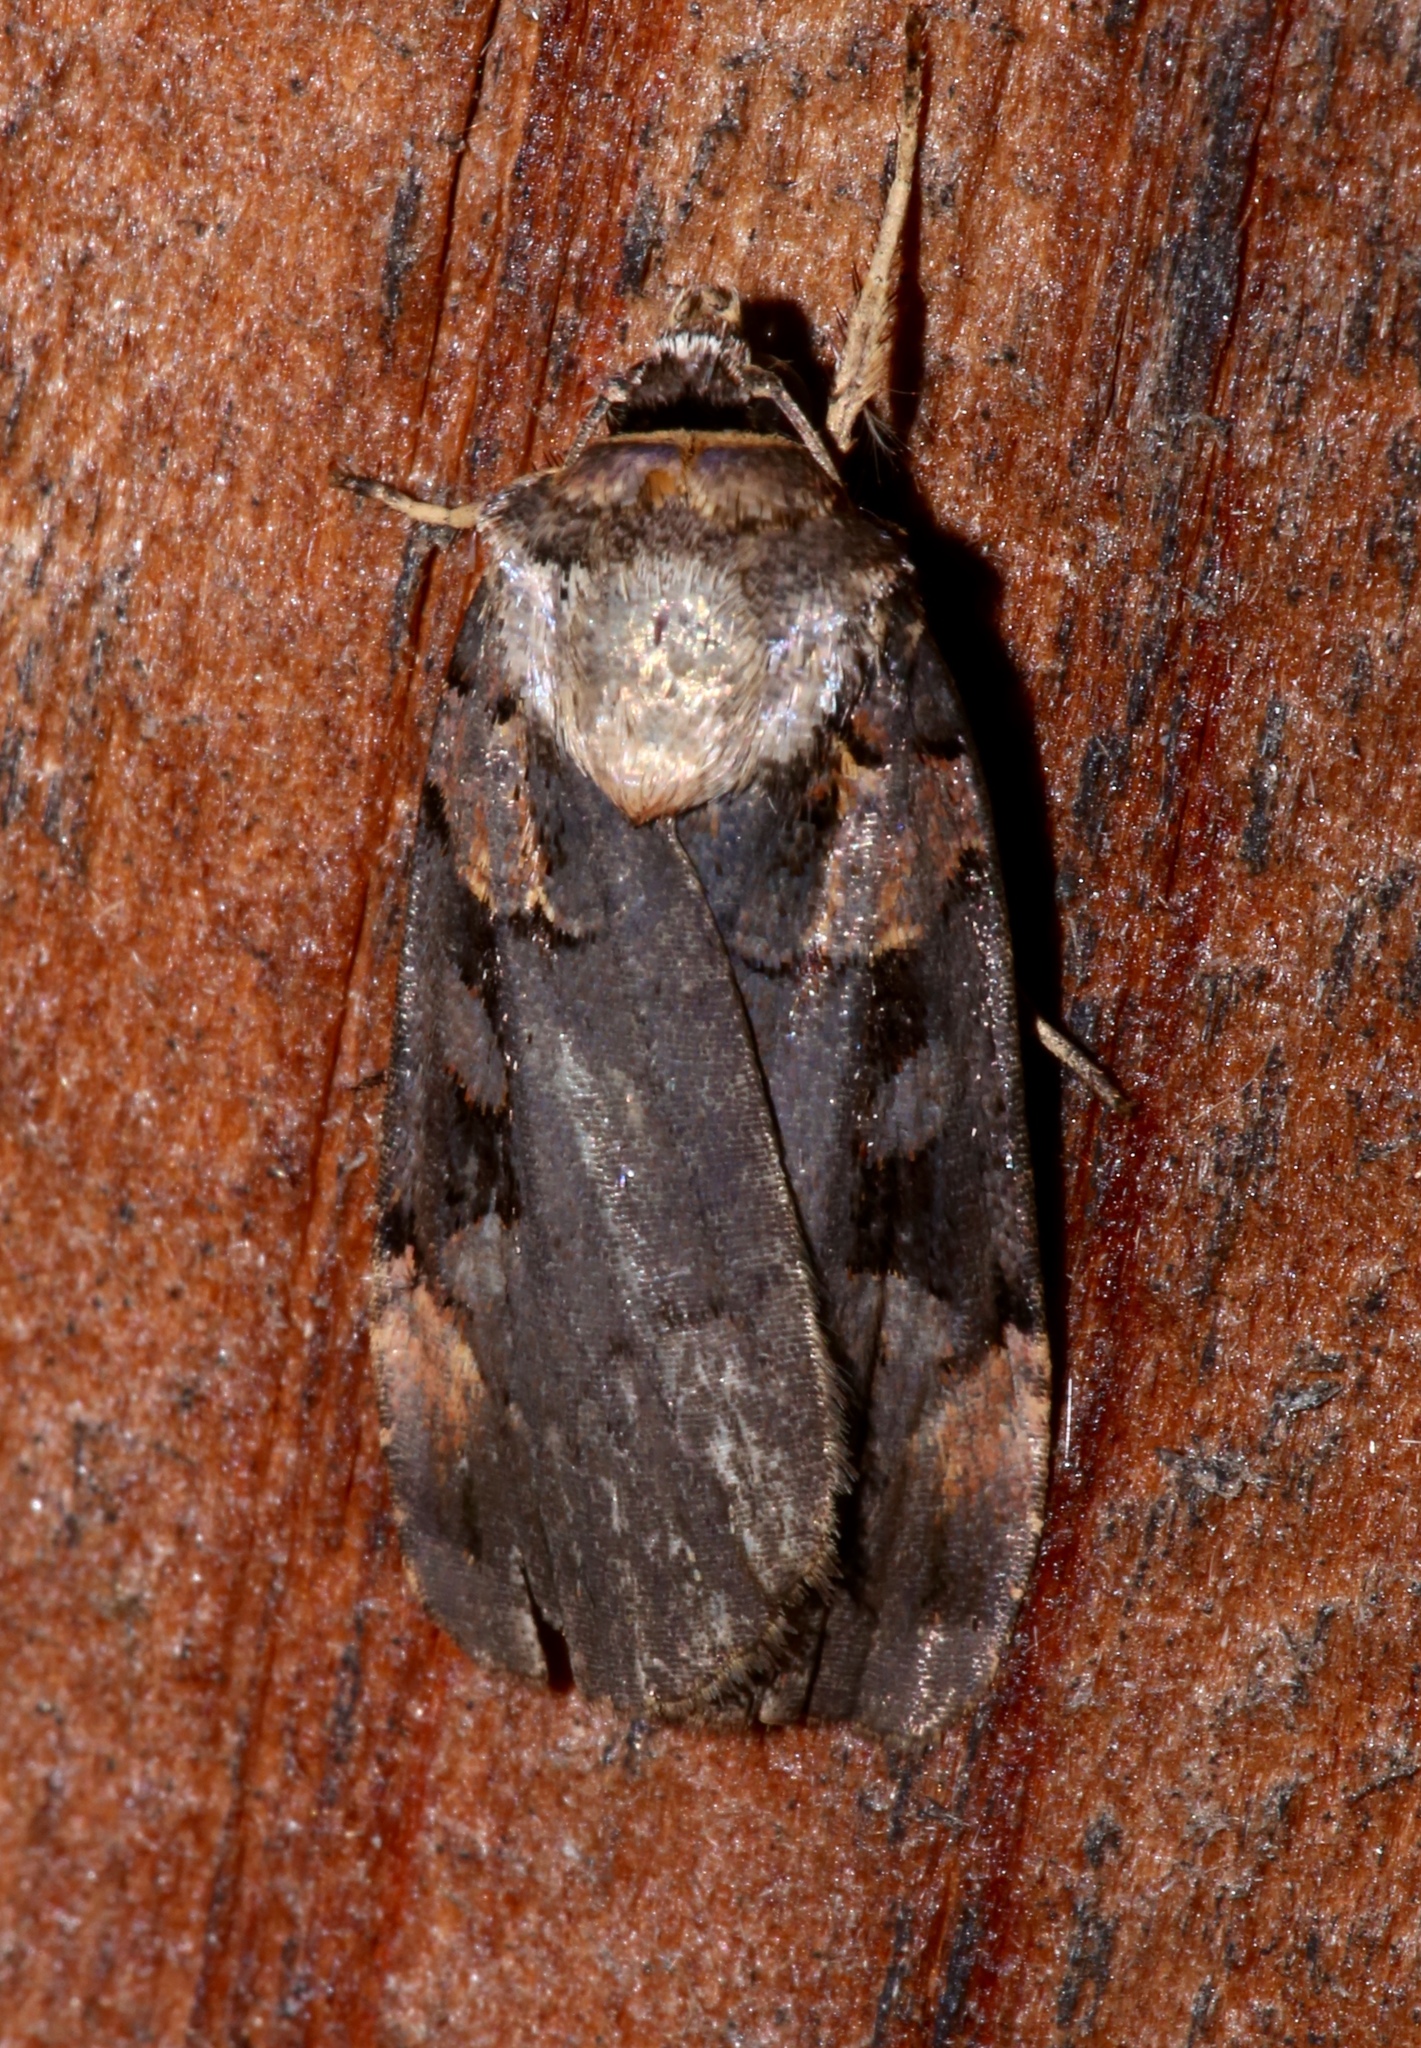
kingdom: Animalia
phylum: Arthropoda
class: Insecta
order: Lepidoptera
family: Noctuidae
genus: Pseudohermonassa
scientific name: Pseudohermonassa bicarnea
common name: Pink spotted dart
